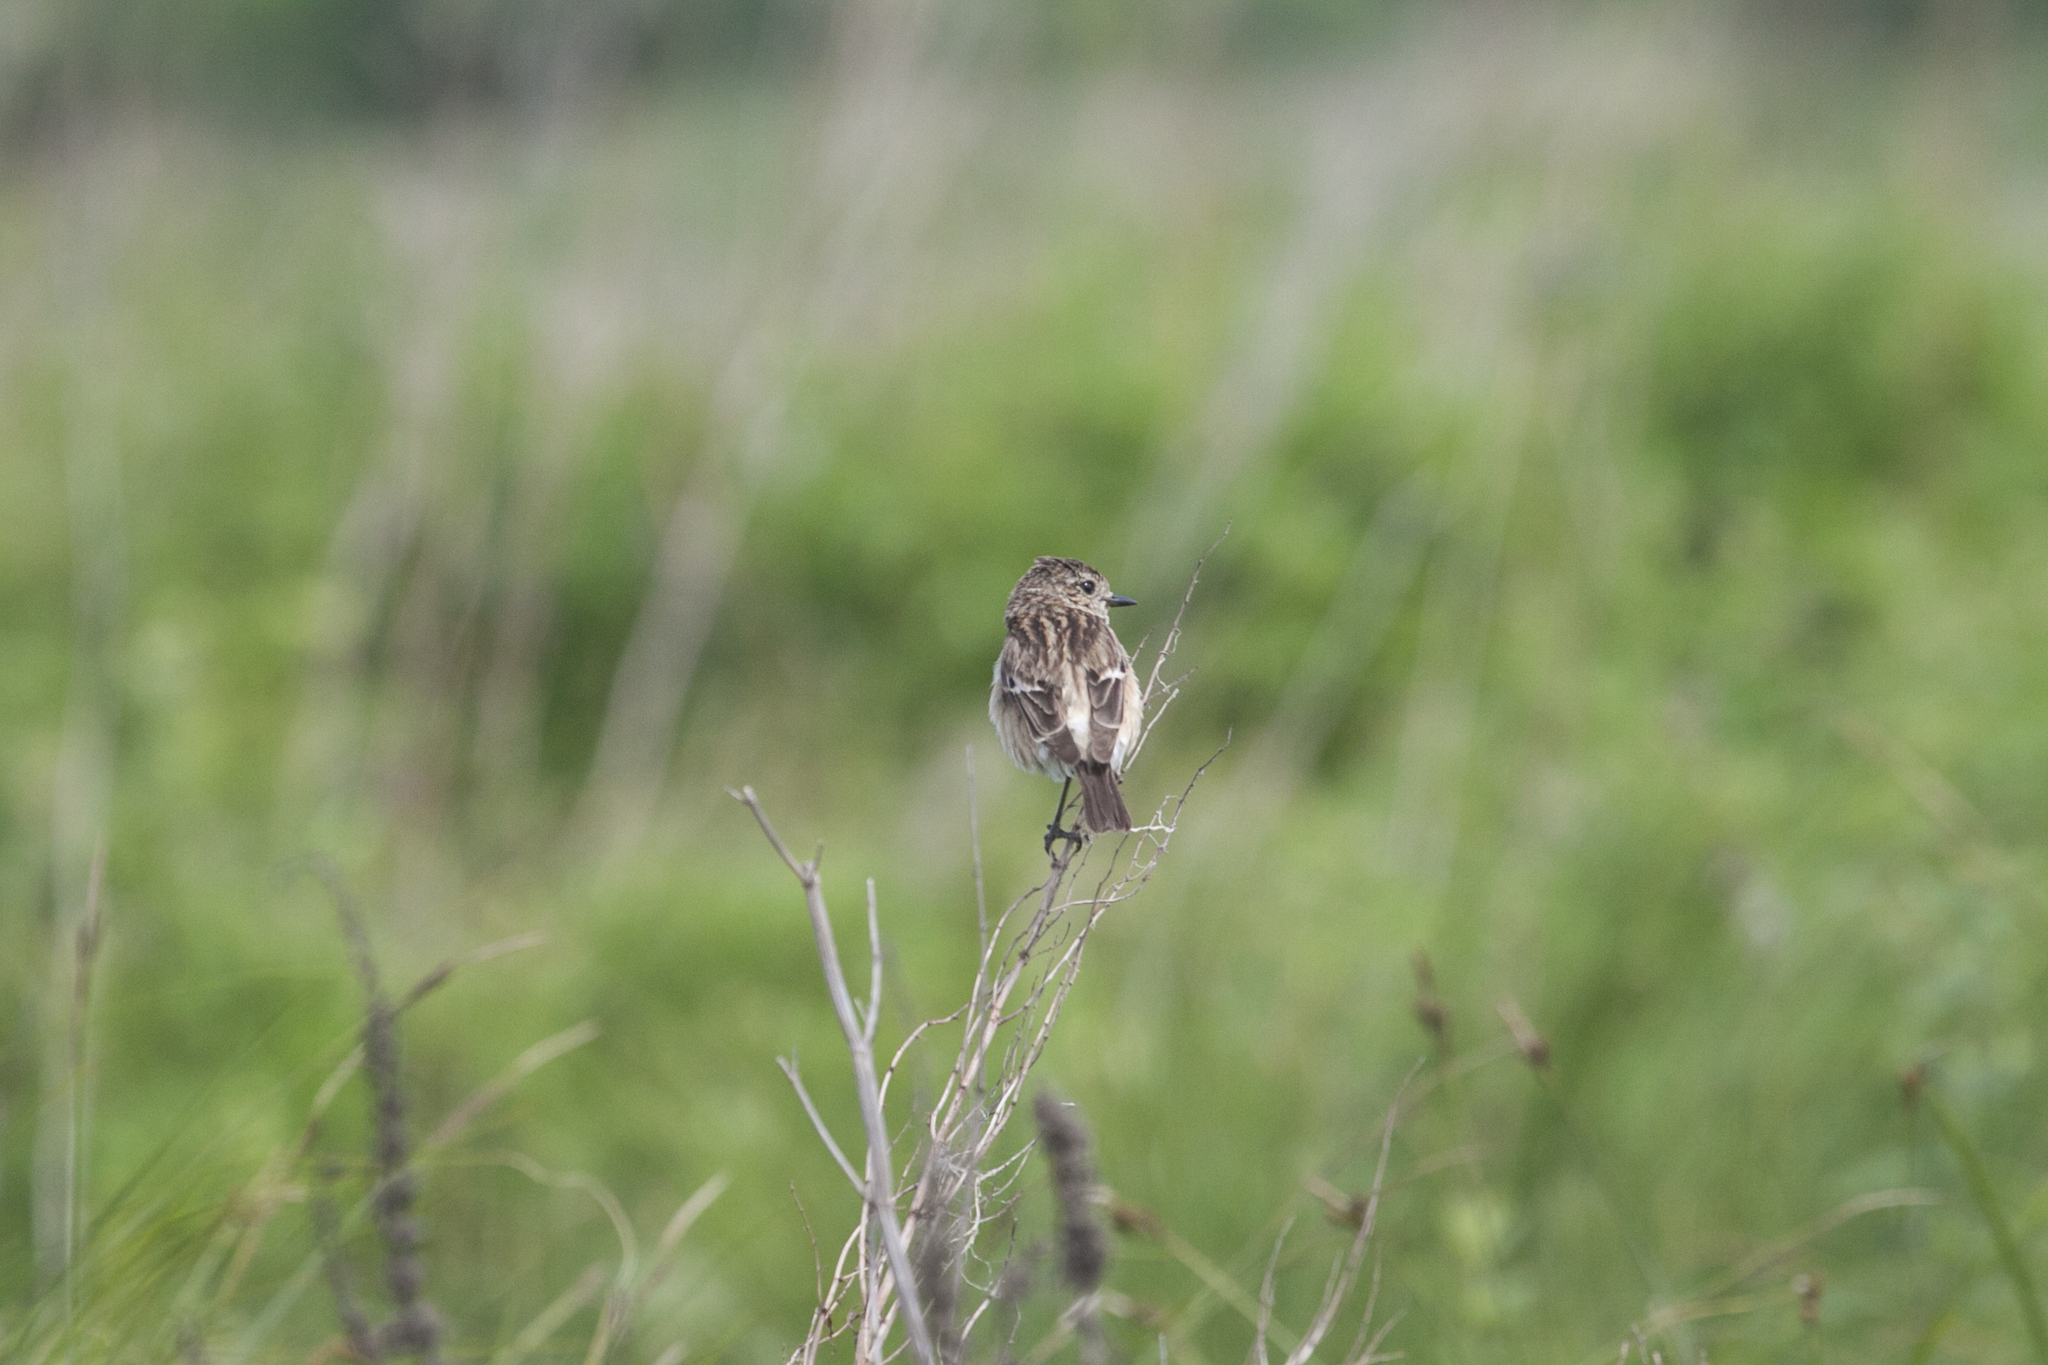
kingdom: Animalia
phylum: Chordata
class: Aves
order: Passeriformes
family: Muscicapidae
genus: Saxicola
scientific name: Saxicola maurus
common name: Siberian stonechat
